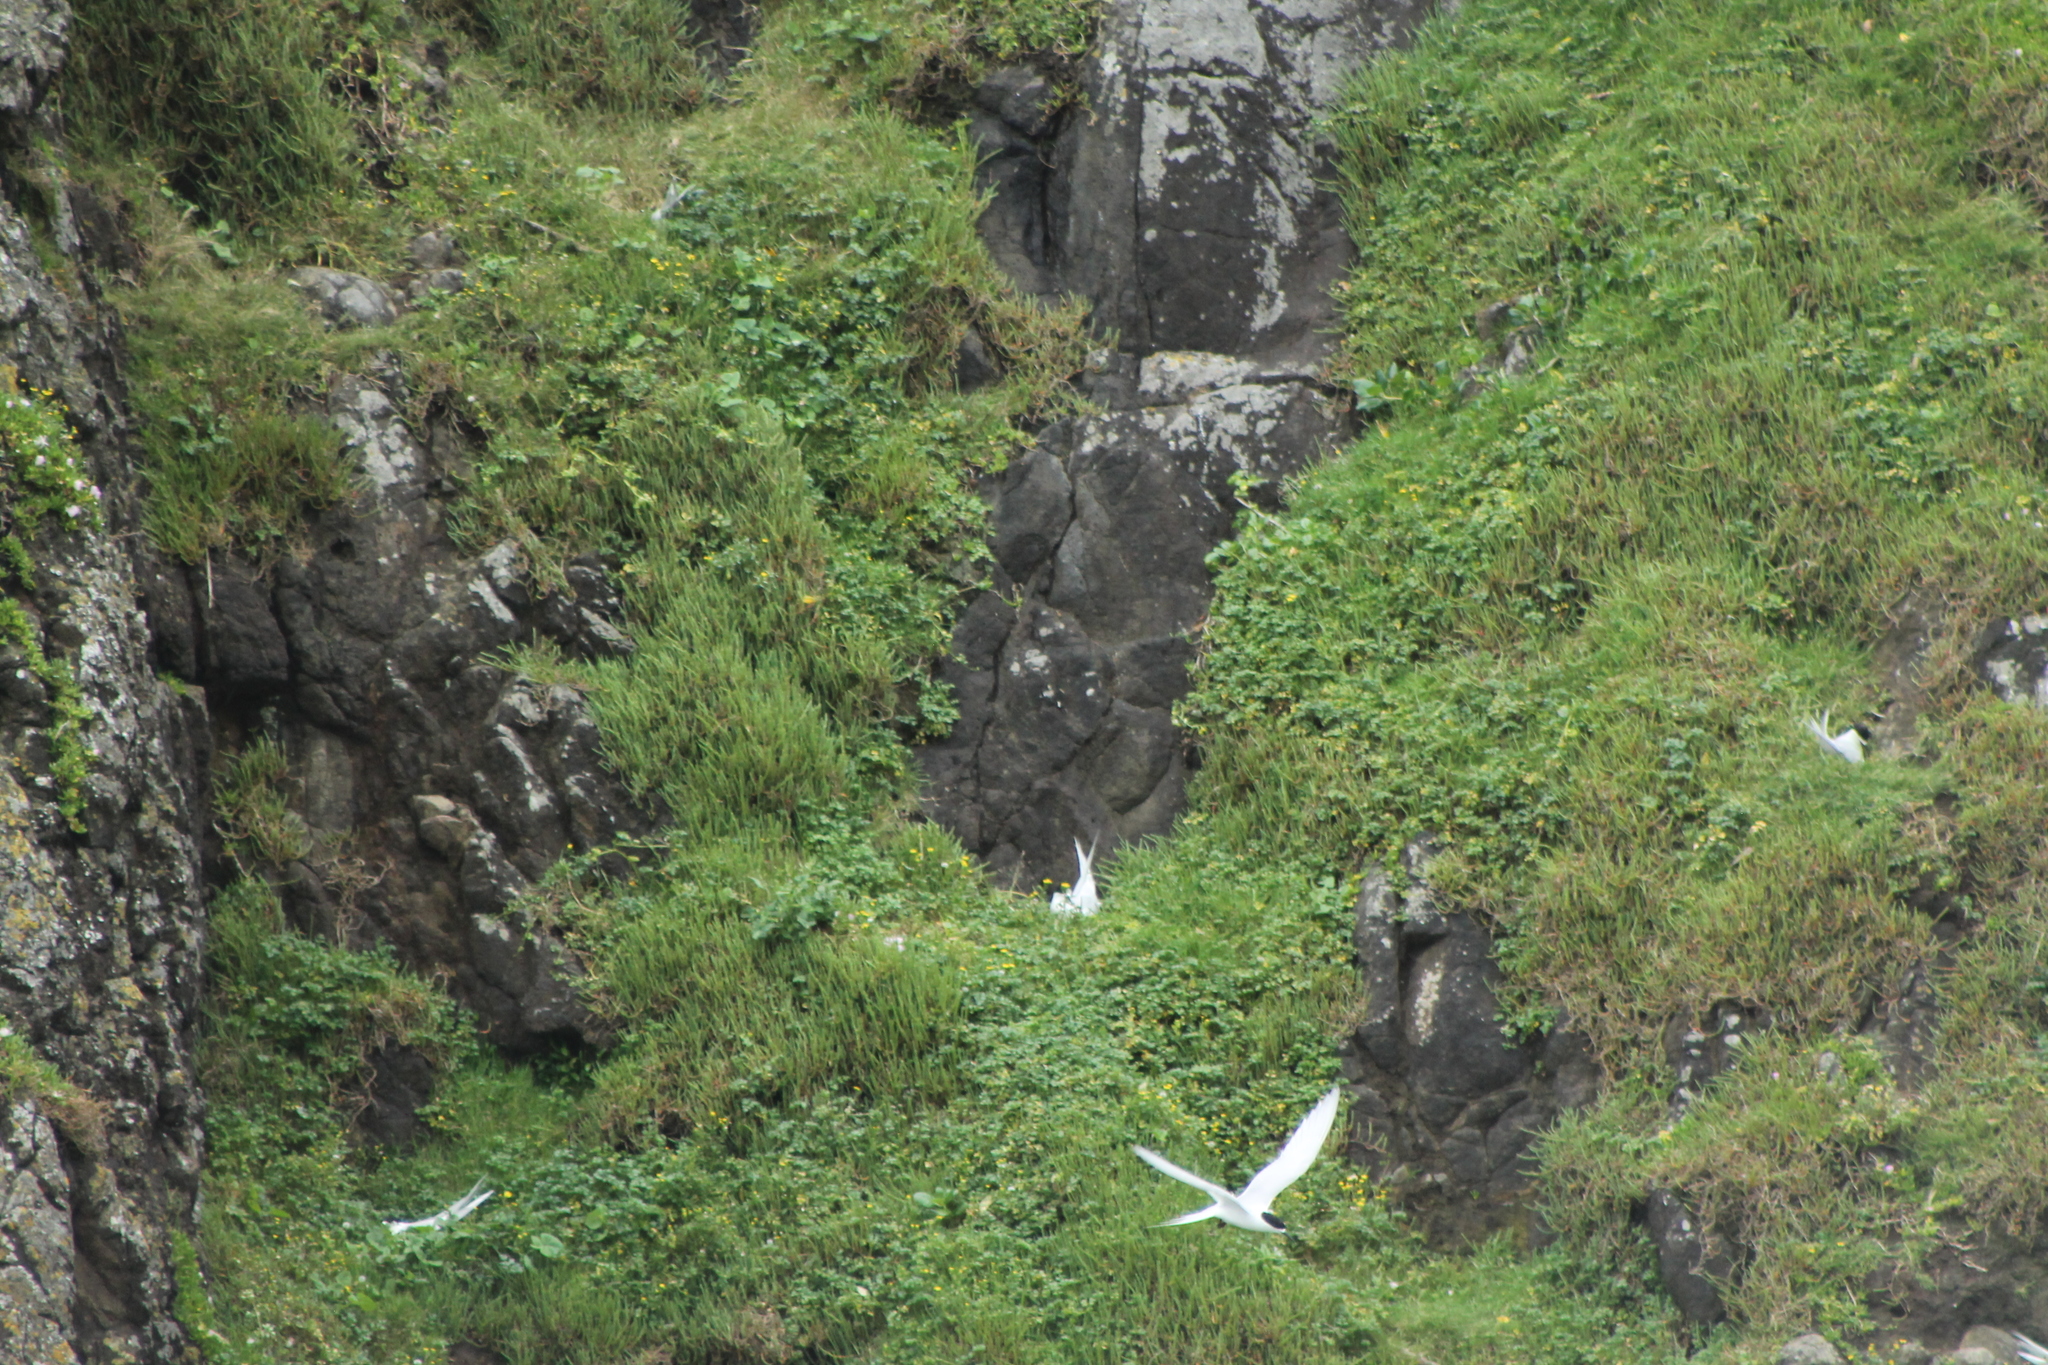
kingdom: Animalia
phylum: Chordata
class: Aves
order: Charadriiformes
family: Laridae
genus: Sterna
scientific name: Sterna striata
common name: White-fronted tern
